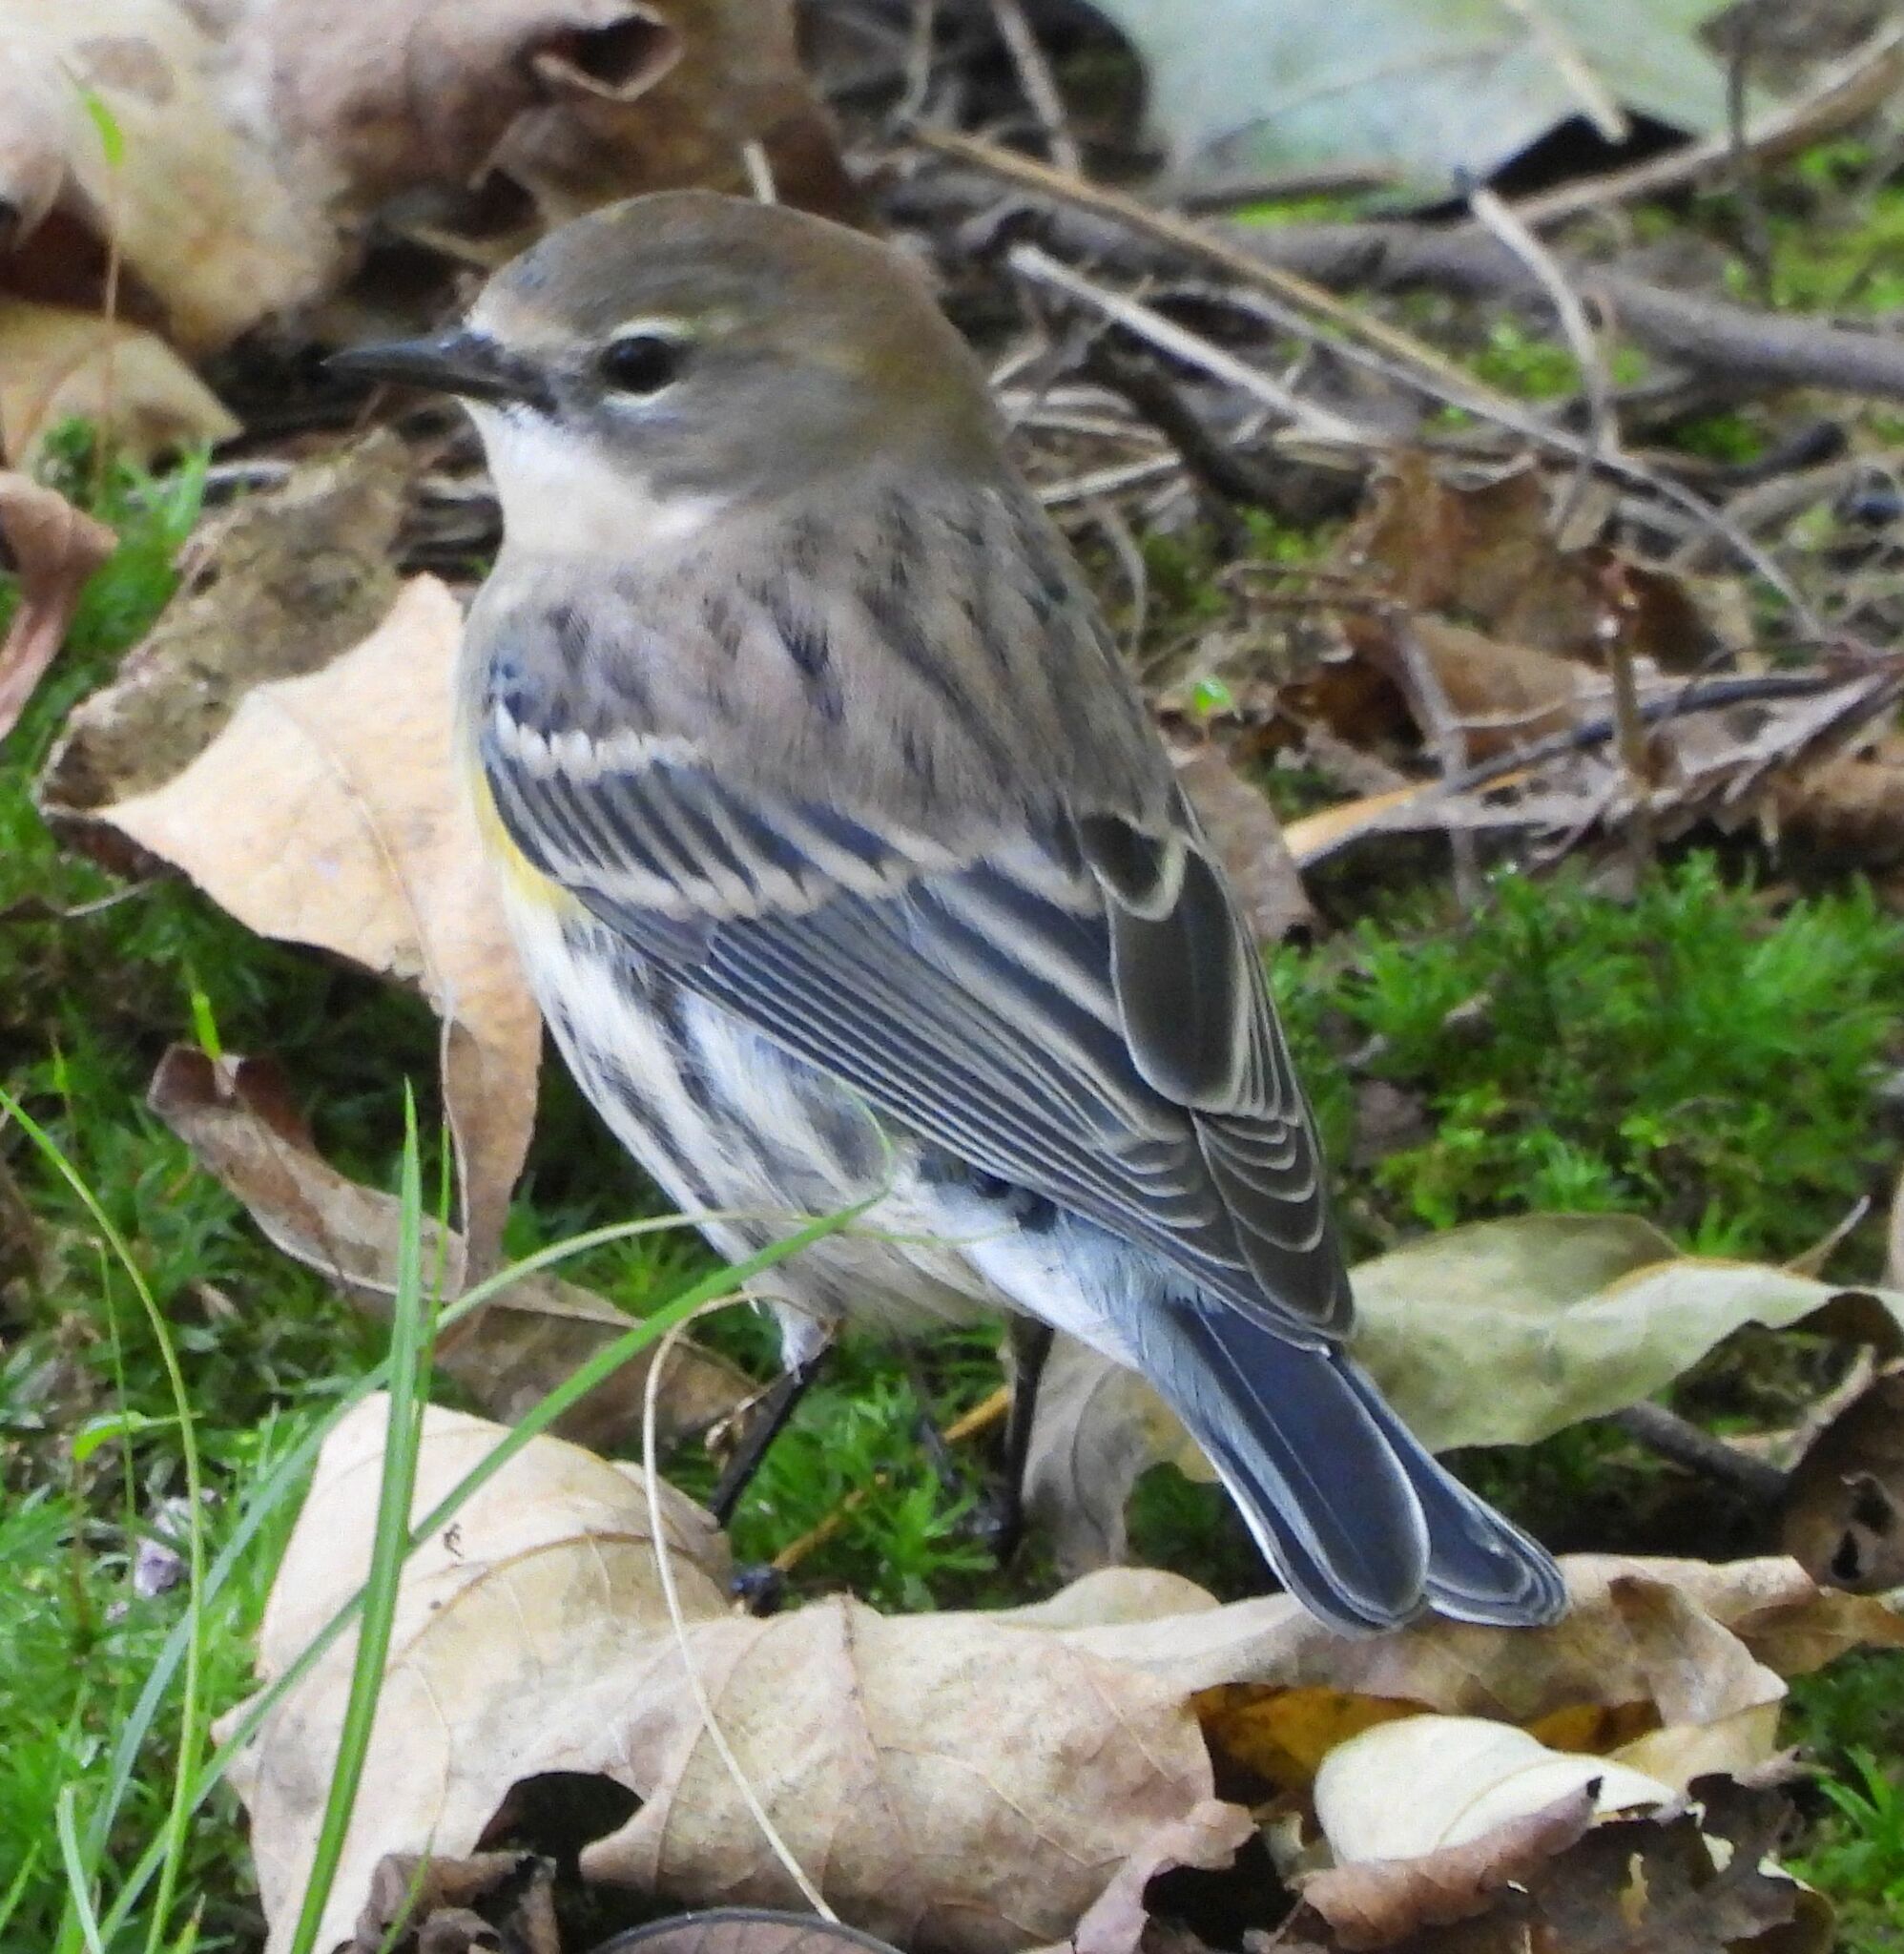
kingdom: Animalia
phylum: Chordata
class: Aves
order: Passeriformes
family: Parulidae
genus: Setophaga
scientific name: Setophaga coronata
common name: Myrtle warbler
